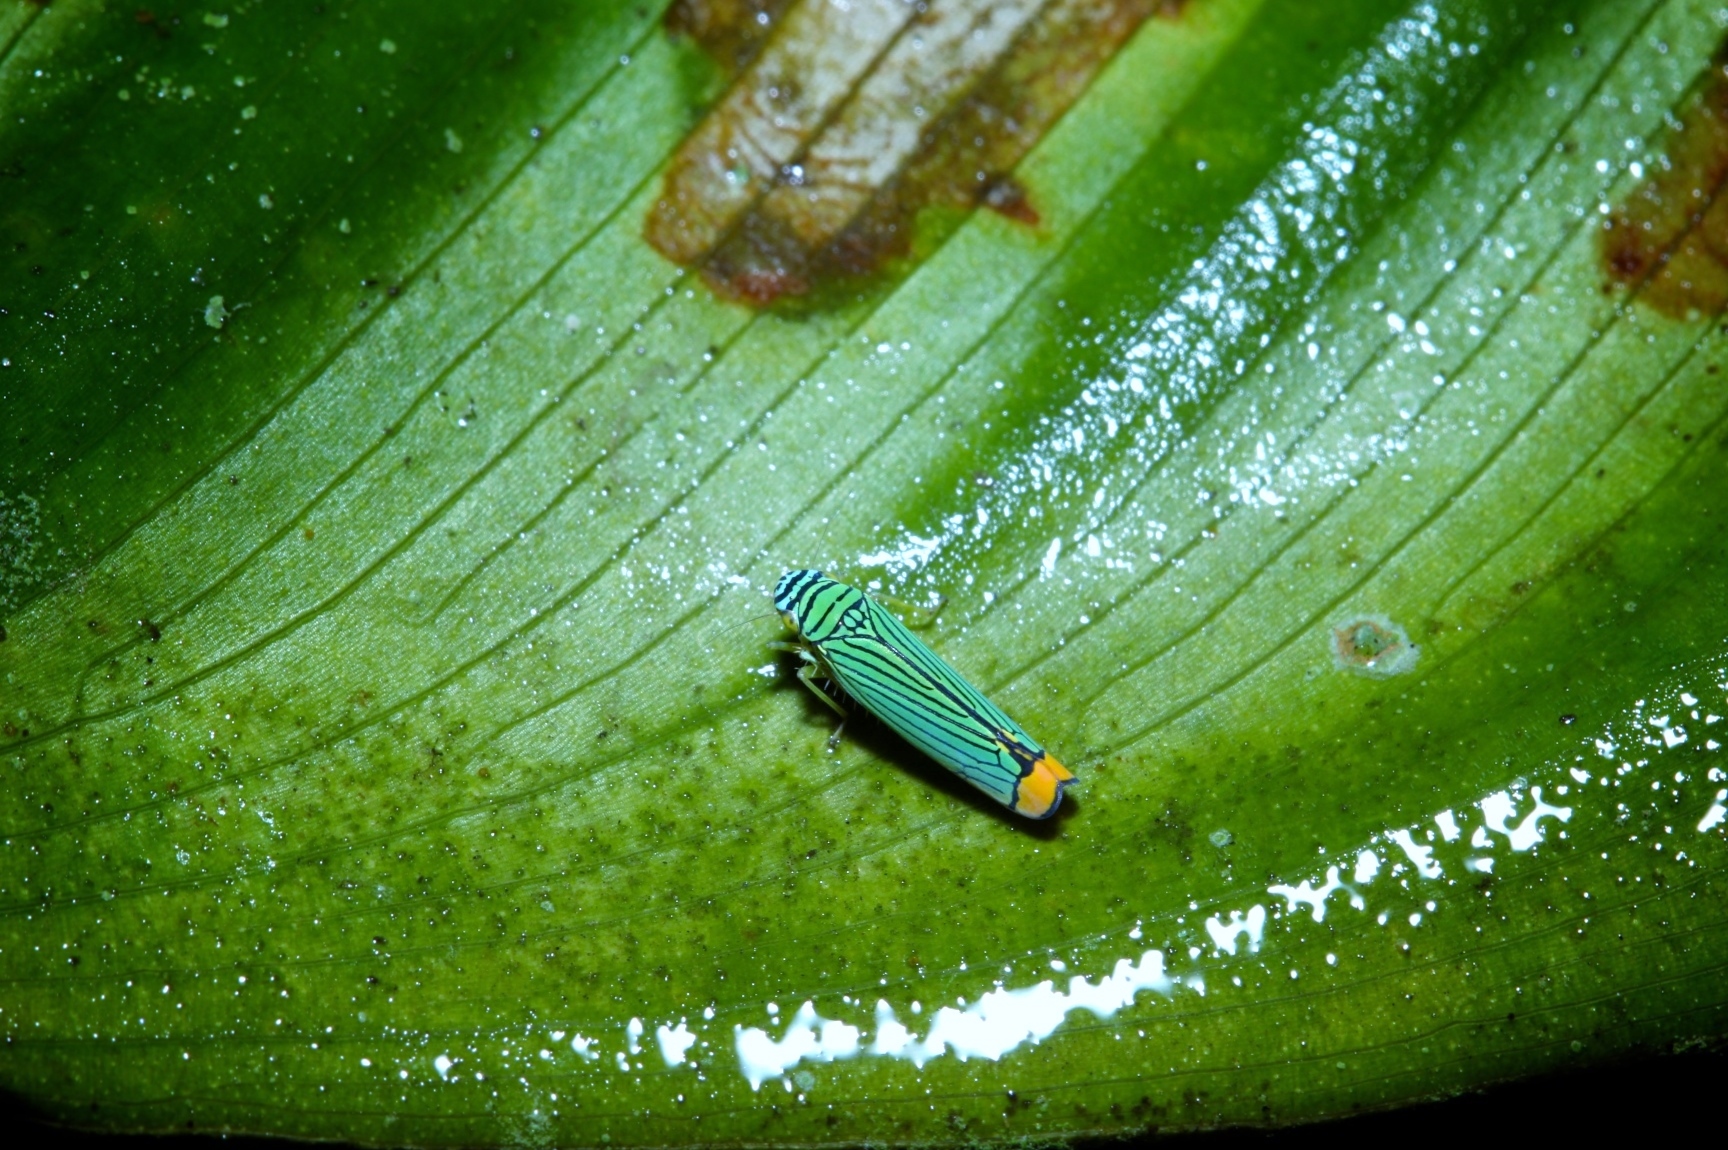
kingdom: Animalia
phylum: Arthropoda
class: Insecta
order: Hemiptera
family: Cicadellidae
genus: Laneola
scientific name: Laneola rubricauda
